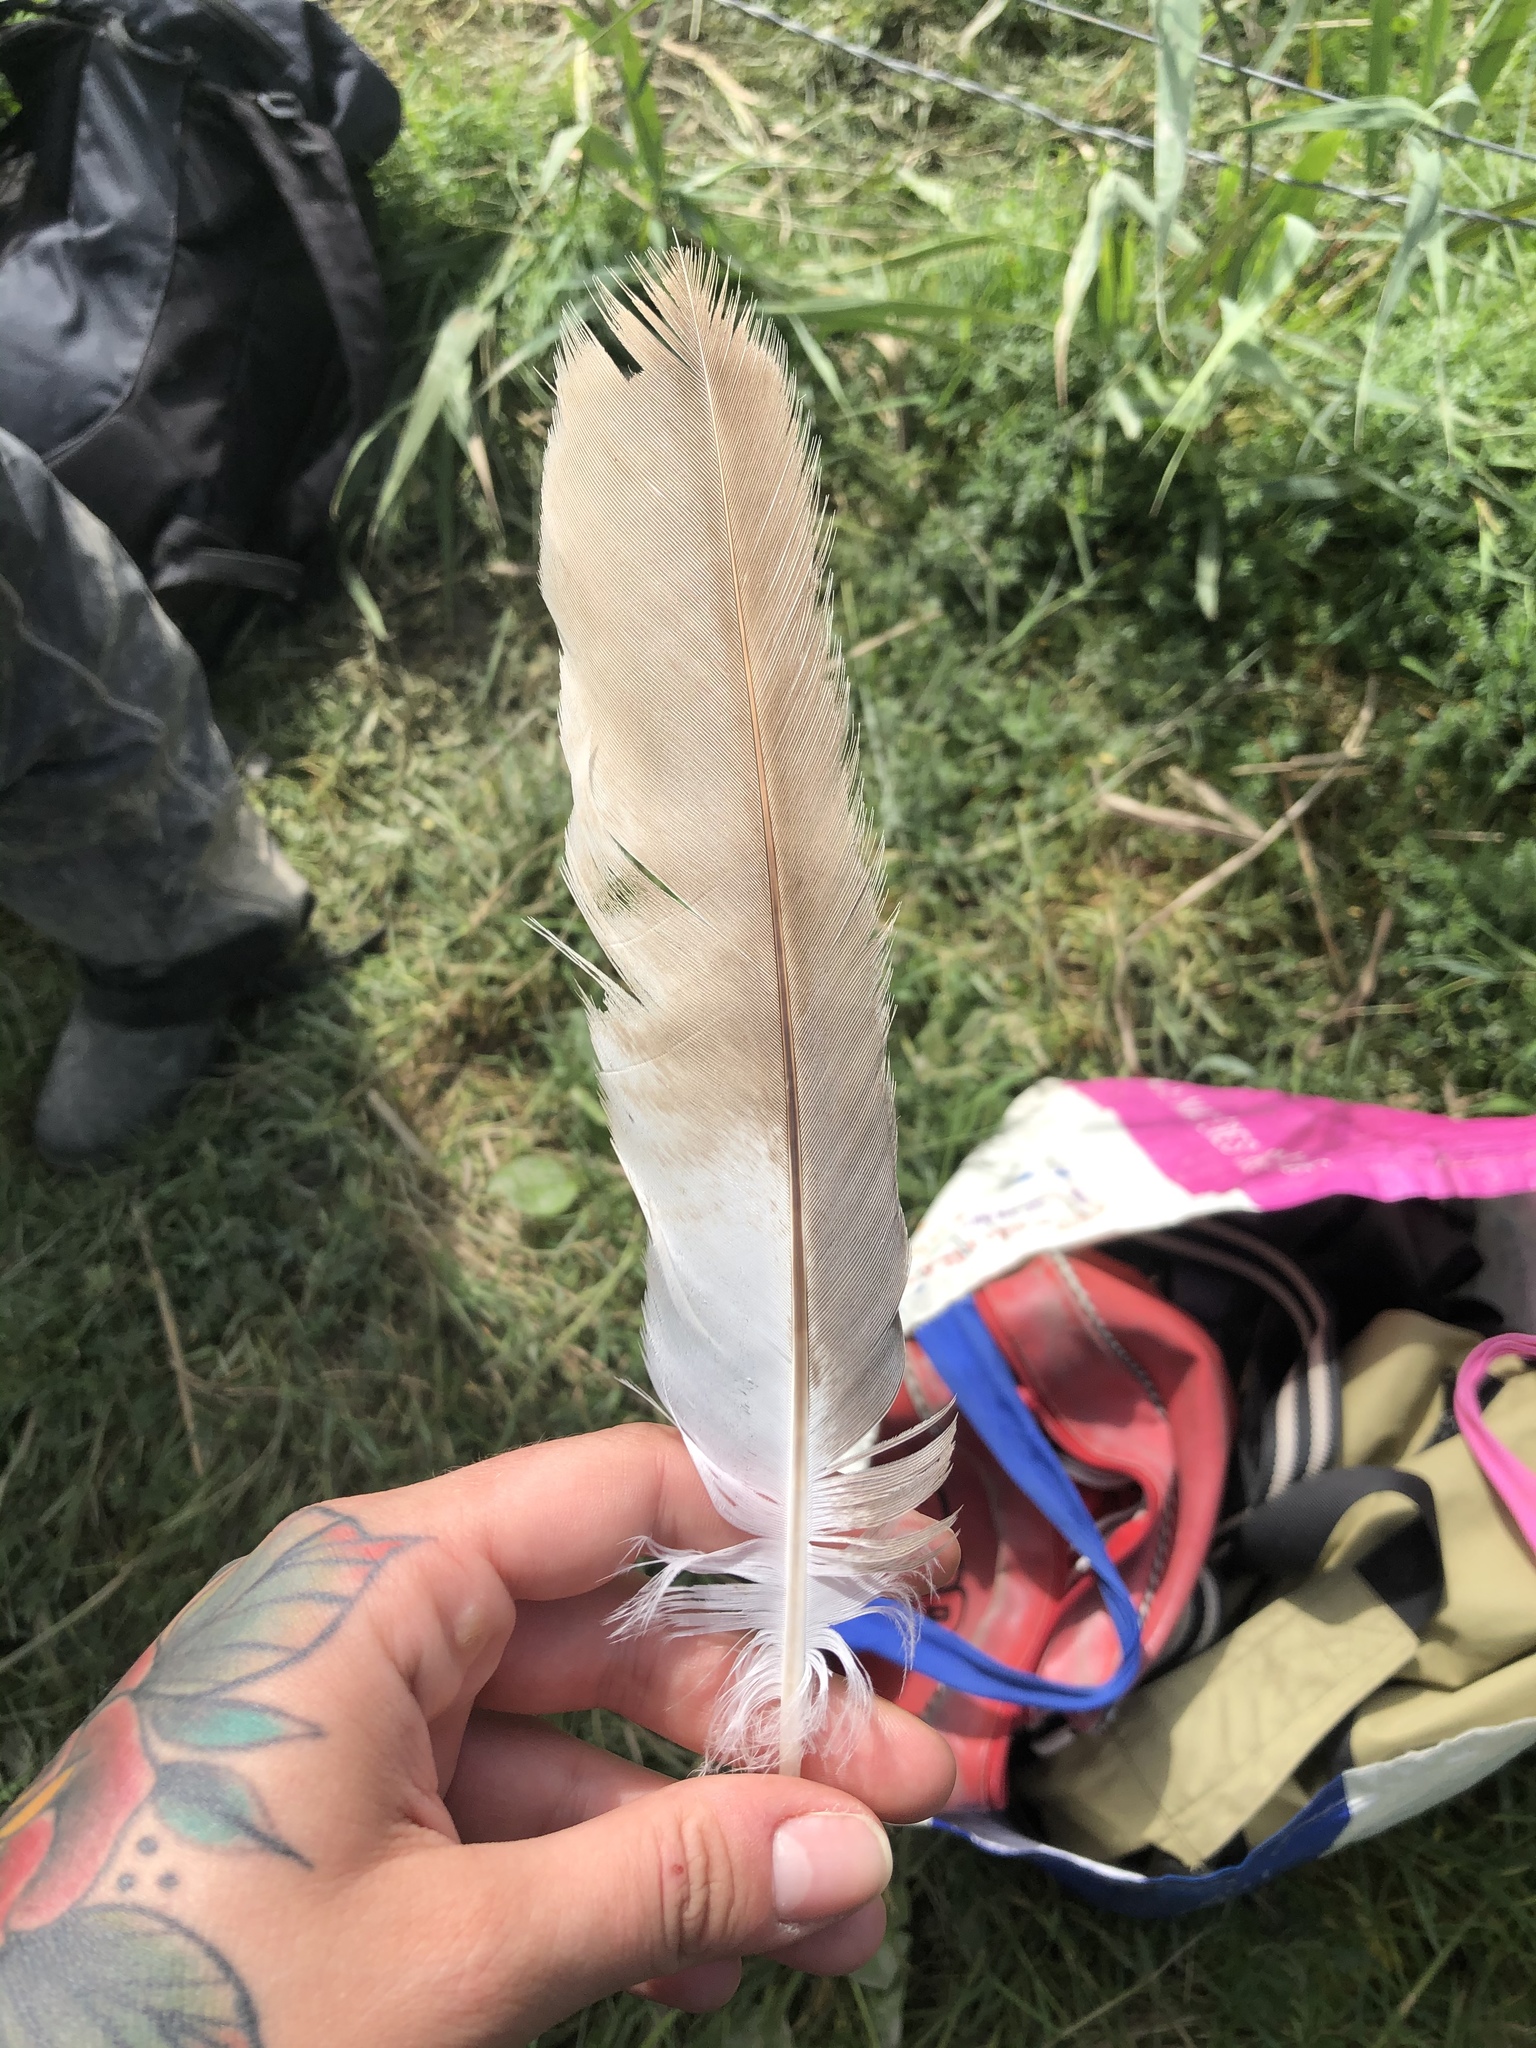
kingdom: Animalia
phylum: Chordata
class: Aves
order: Accipitriformes
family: Accipitridae
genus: Circus
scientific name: Circus aeruginosus
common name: Western marsh harrier
